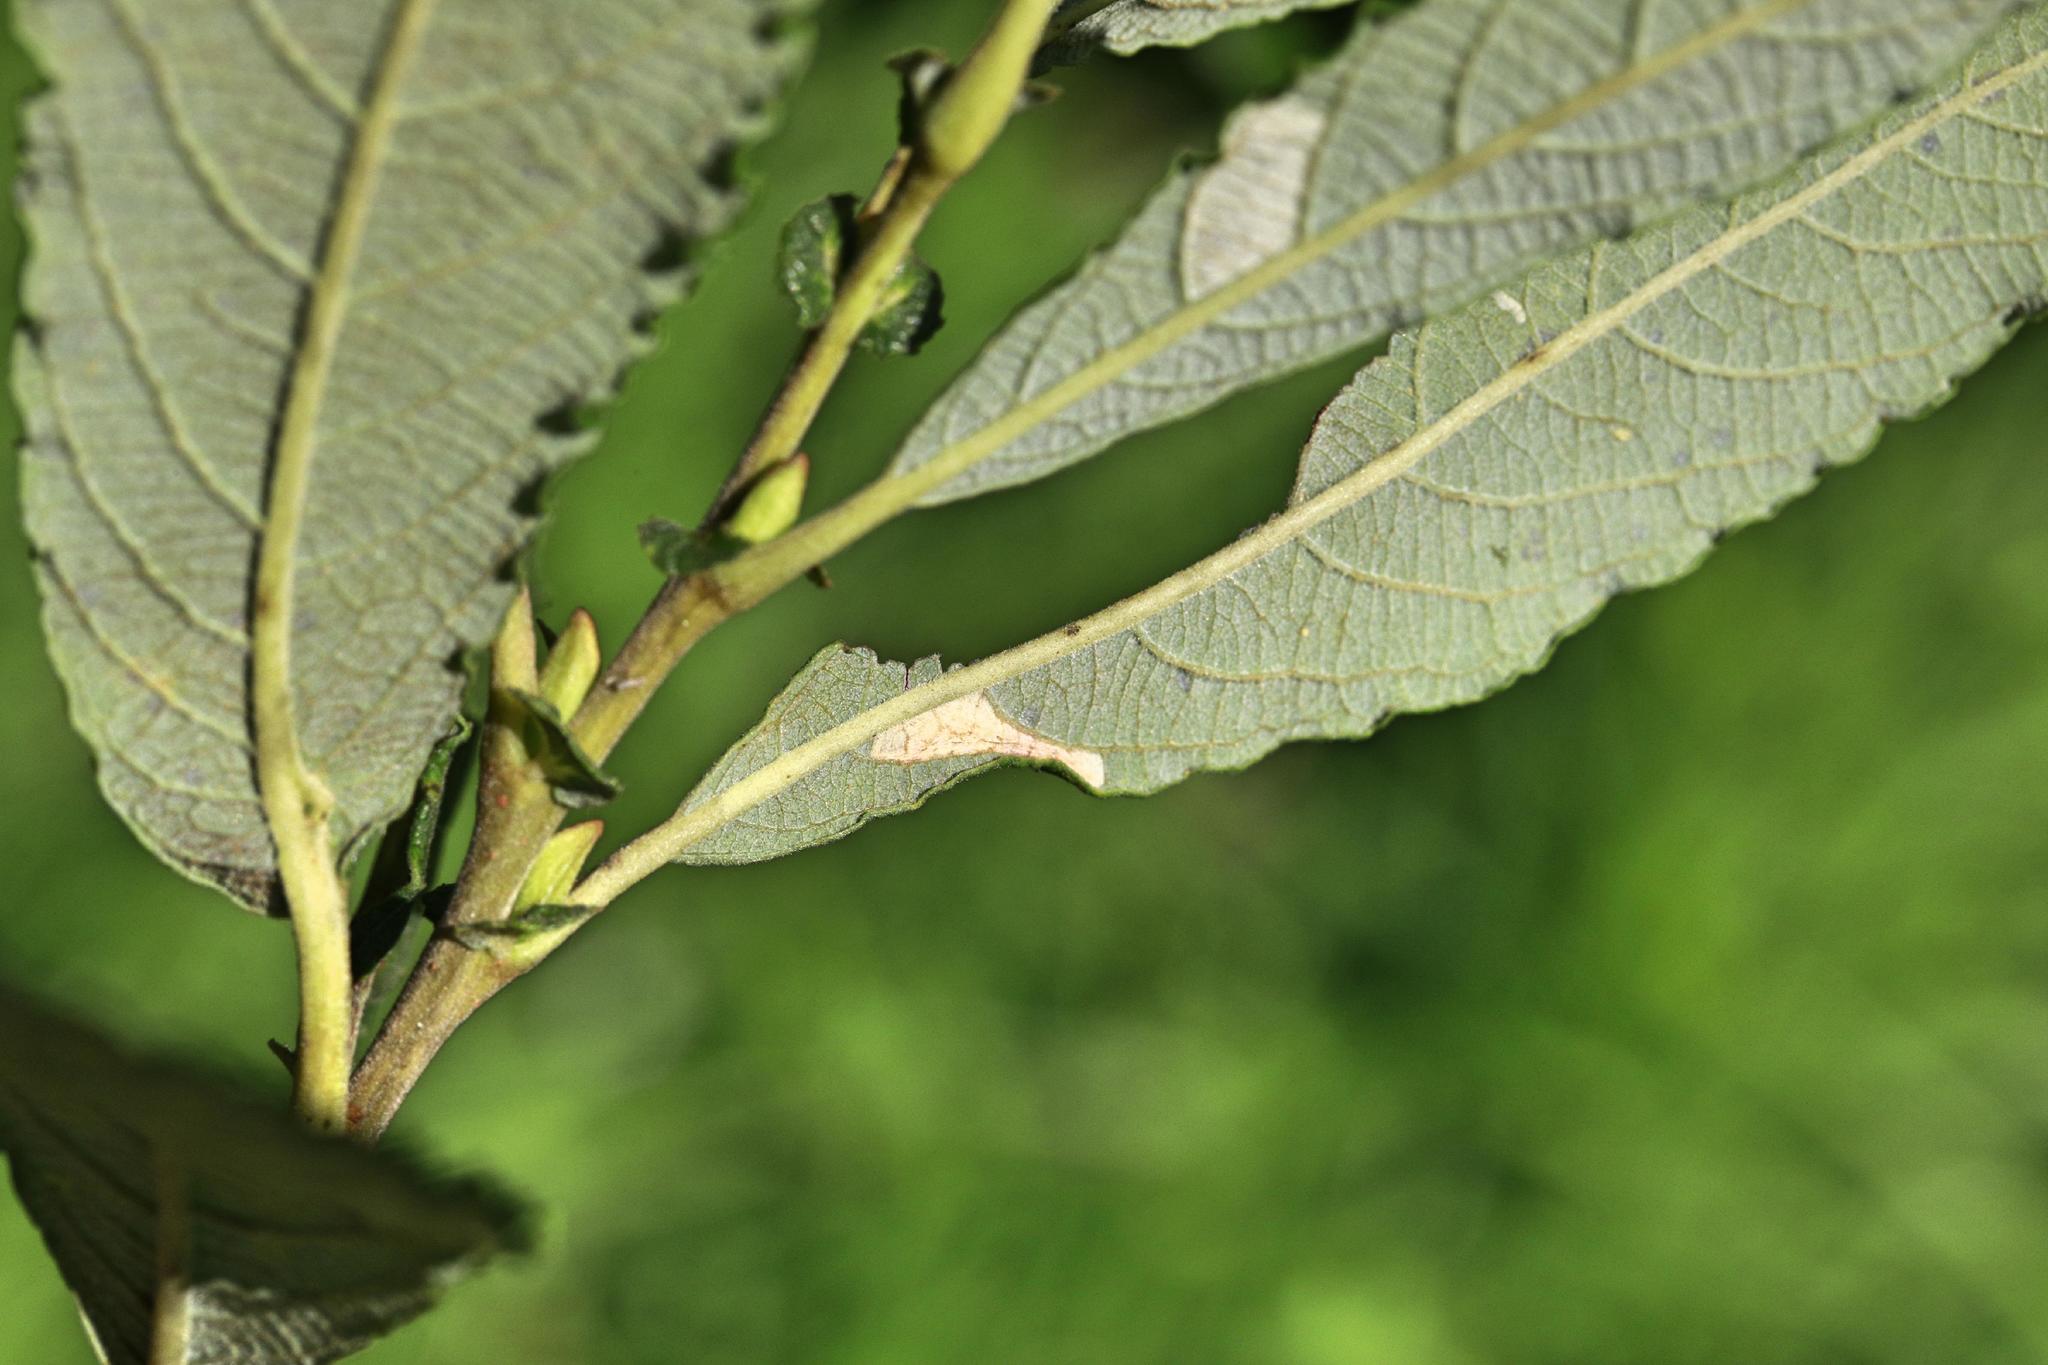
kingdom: Animalia
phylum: Arthropoda
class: Insecta
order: Lepidoptera
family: Gracillariidae
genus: Phyllonorycter
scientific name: Phyllonorycter salictella
